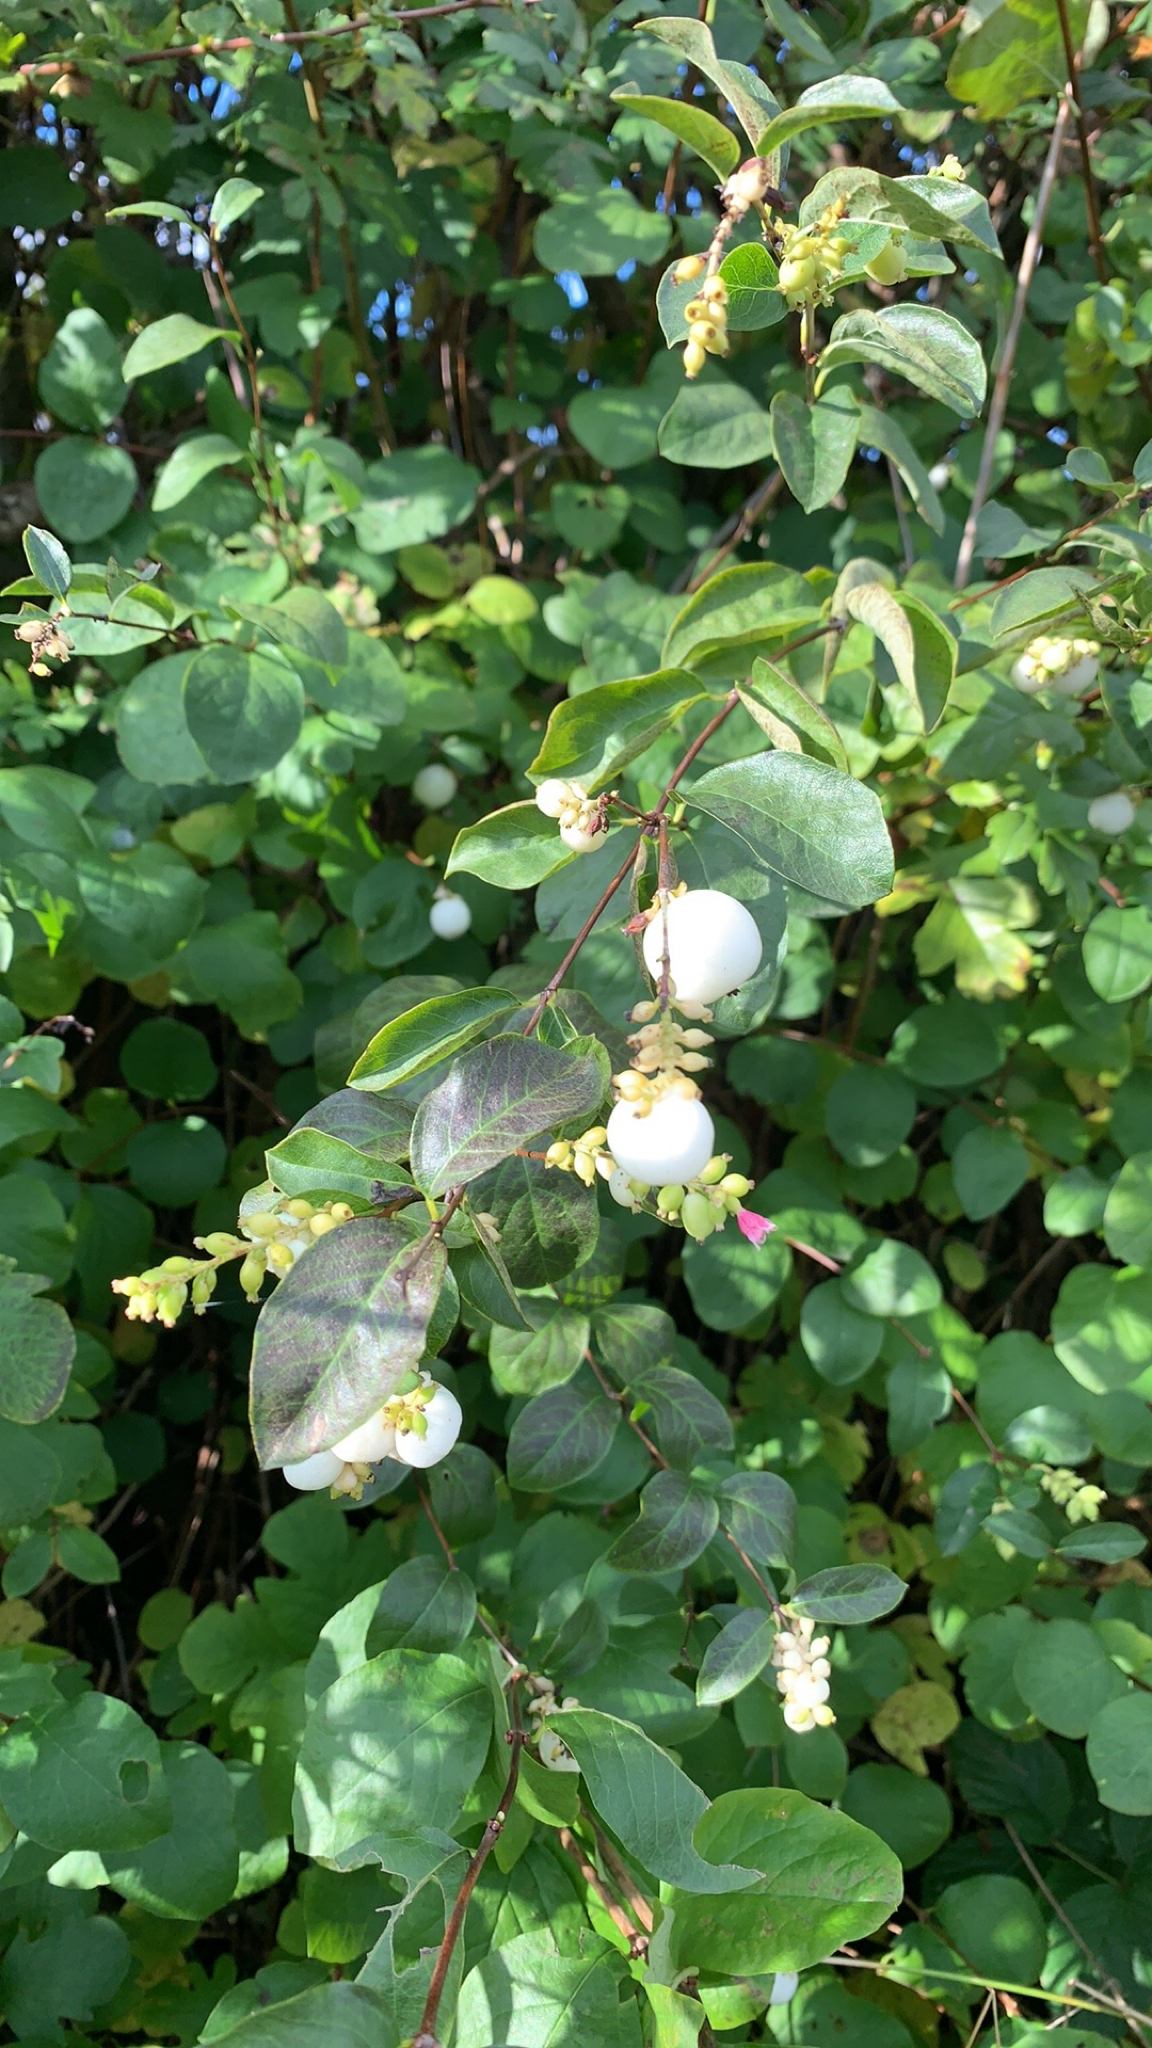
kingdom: Plantae
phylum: Tracheophyta
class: Magnoliopsida
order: Dipsacales
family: Caprifoliaceae
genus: Symphoricarpos
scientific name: Symphoricarpos albus
